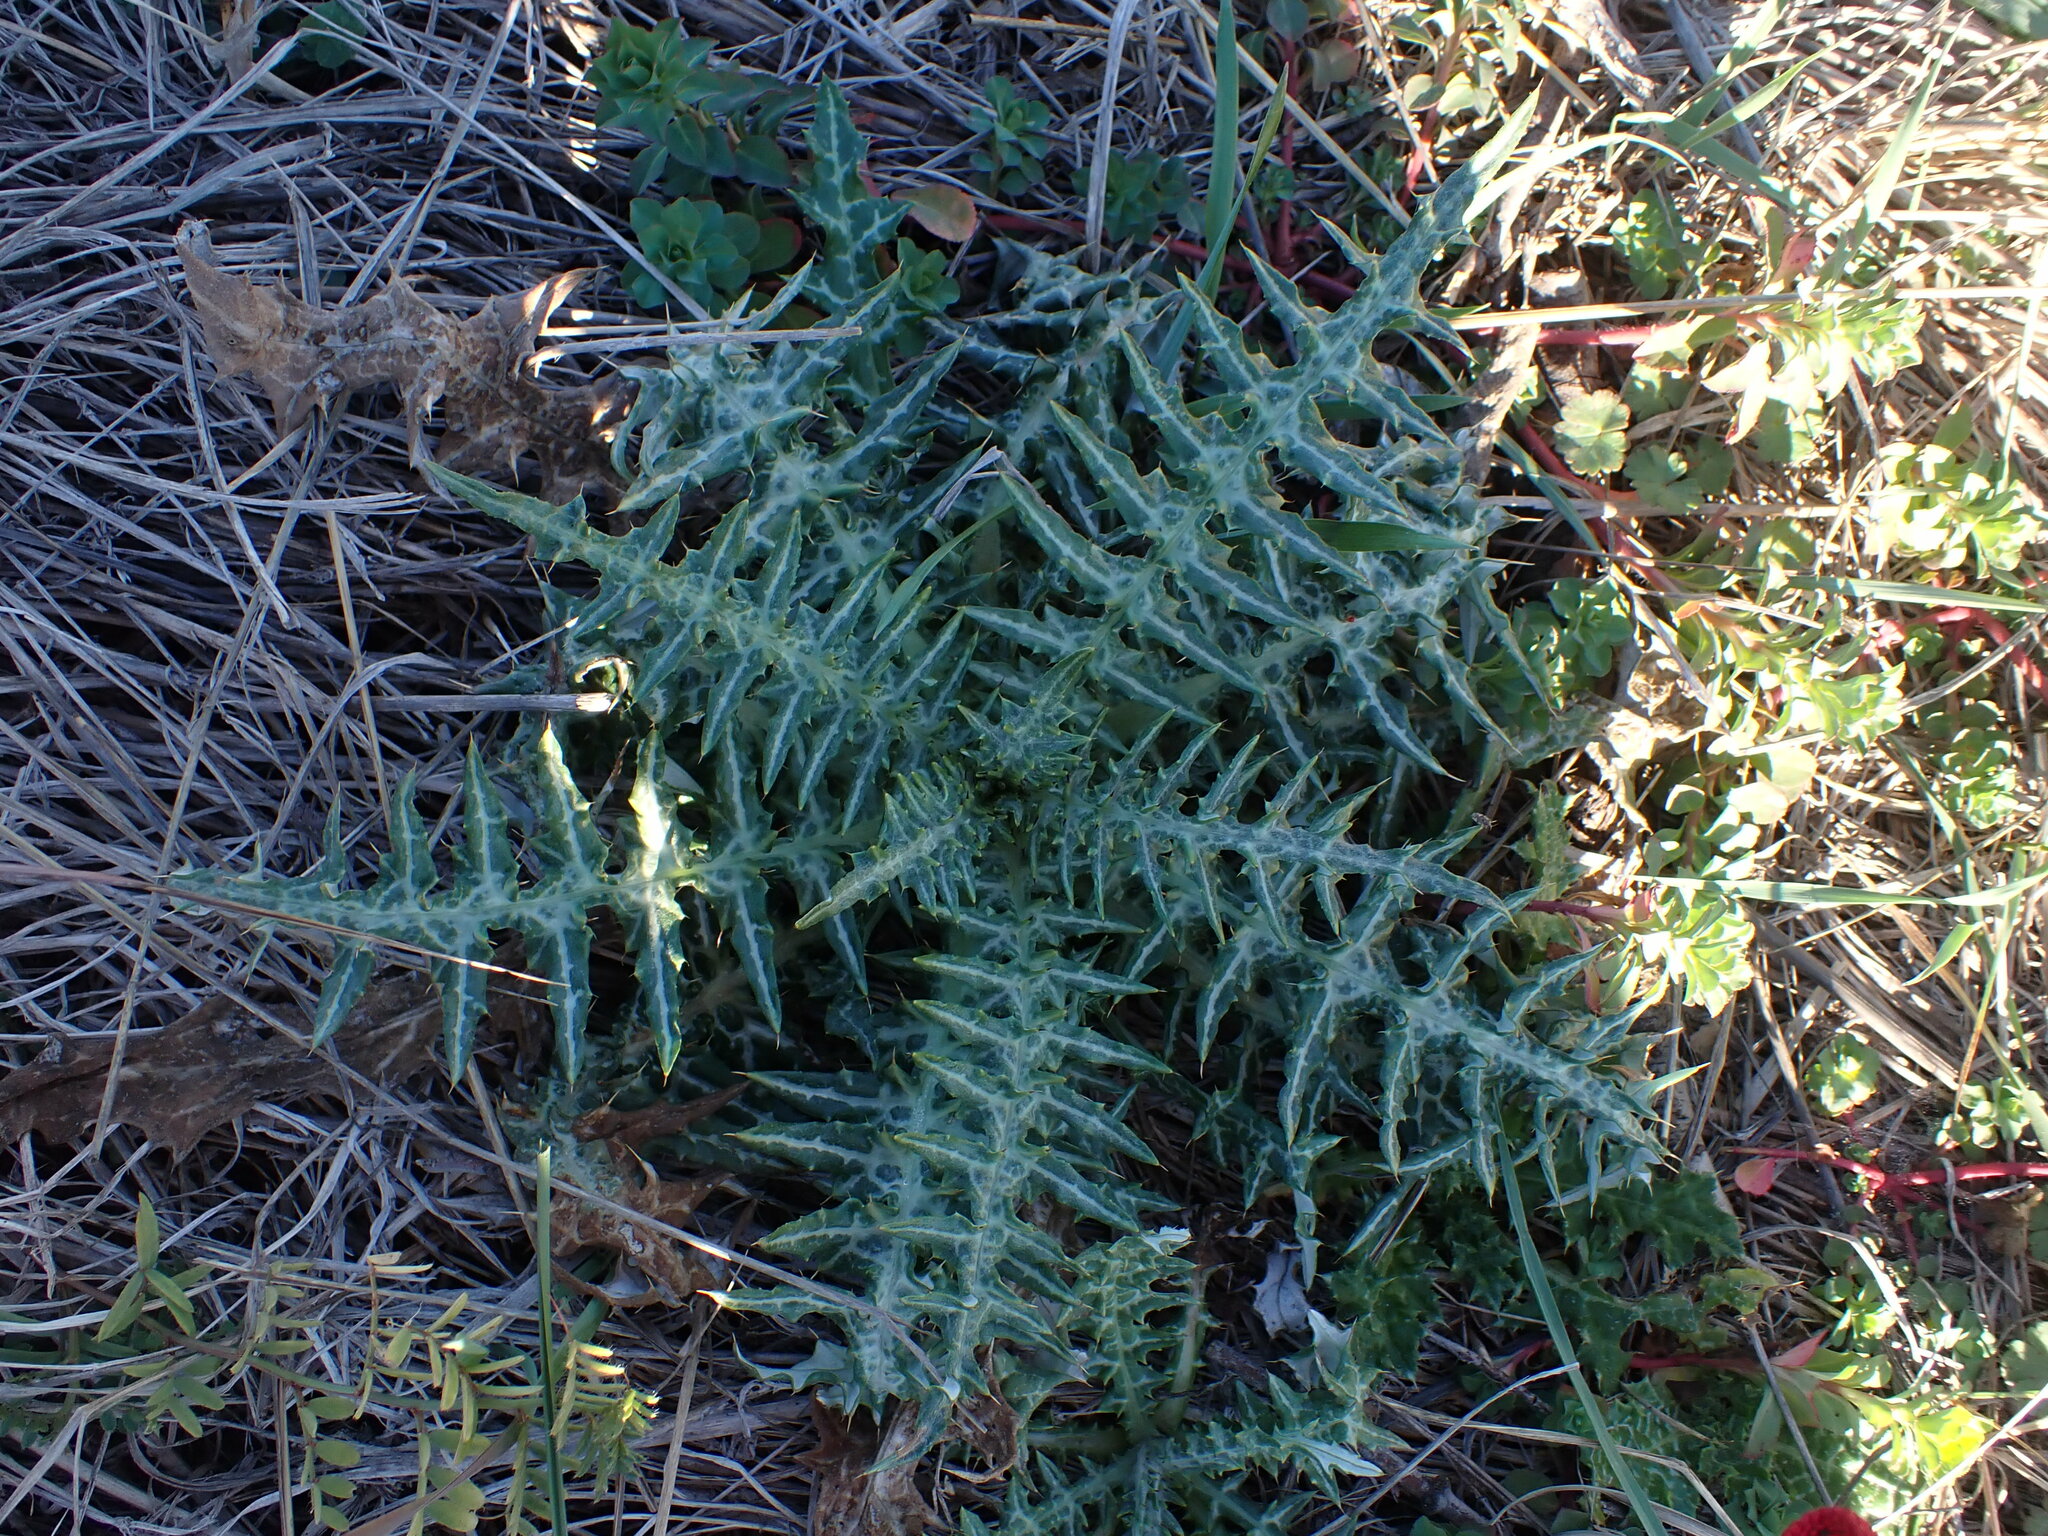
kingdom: Plantae
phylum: Tracheophyta
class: Magnoliopsida
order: Asterales
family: Asteraceae
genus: Galactites
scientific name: Galactites tomentosa
